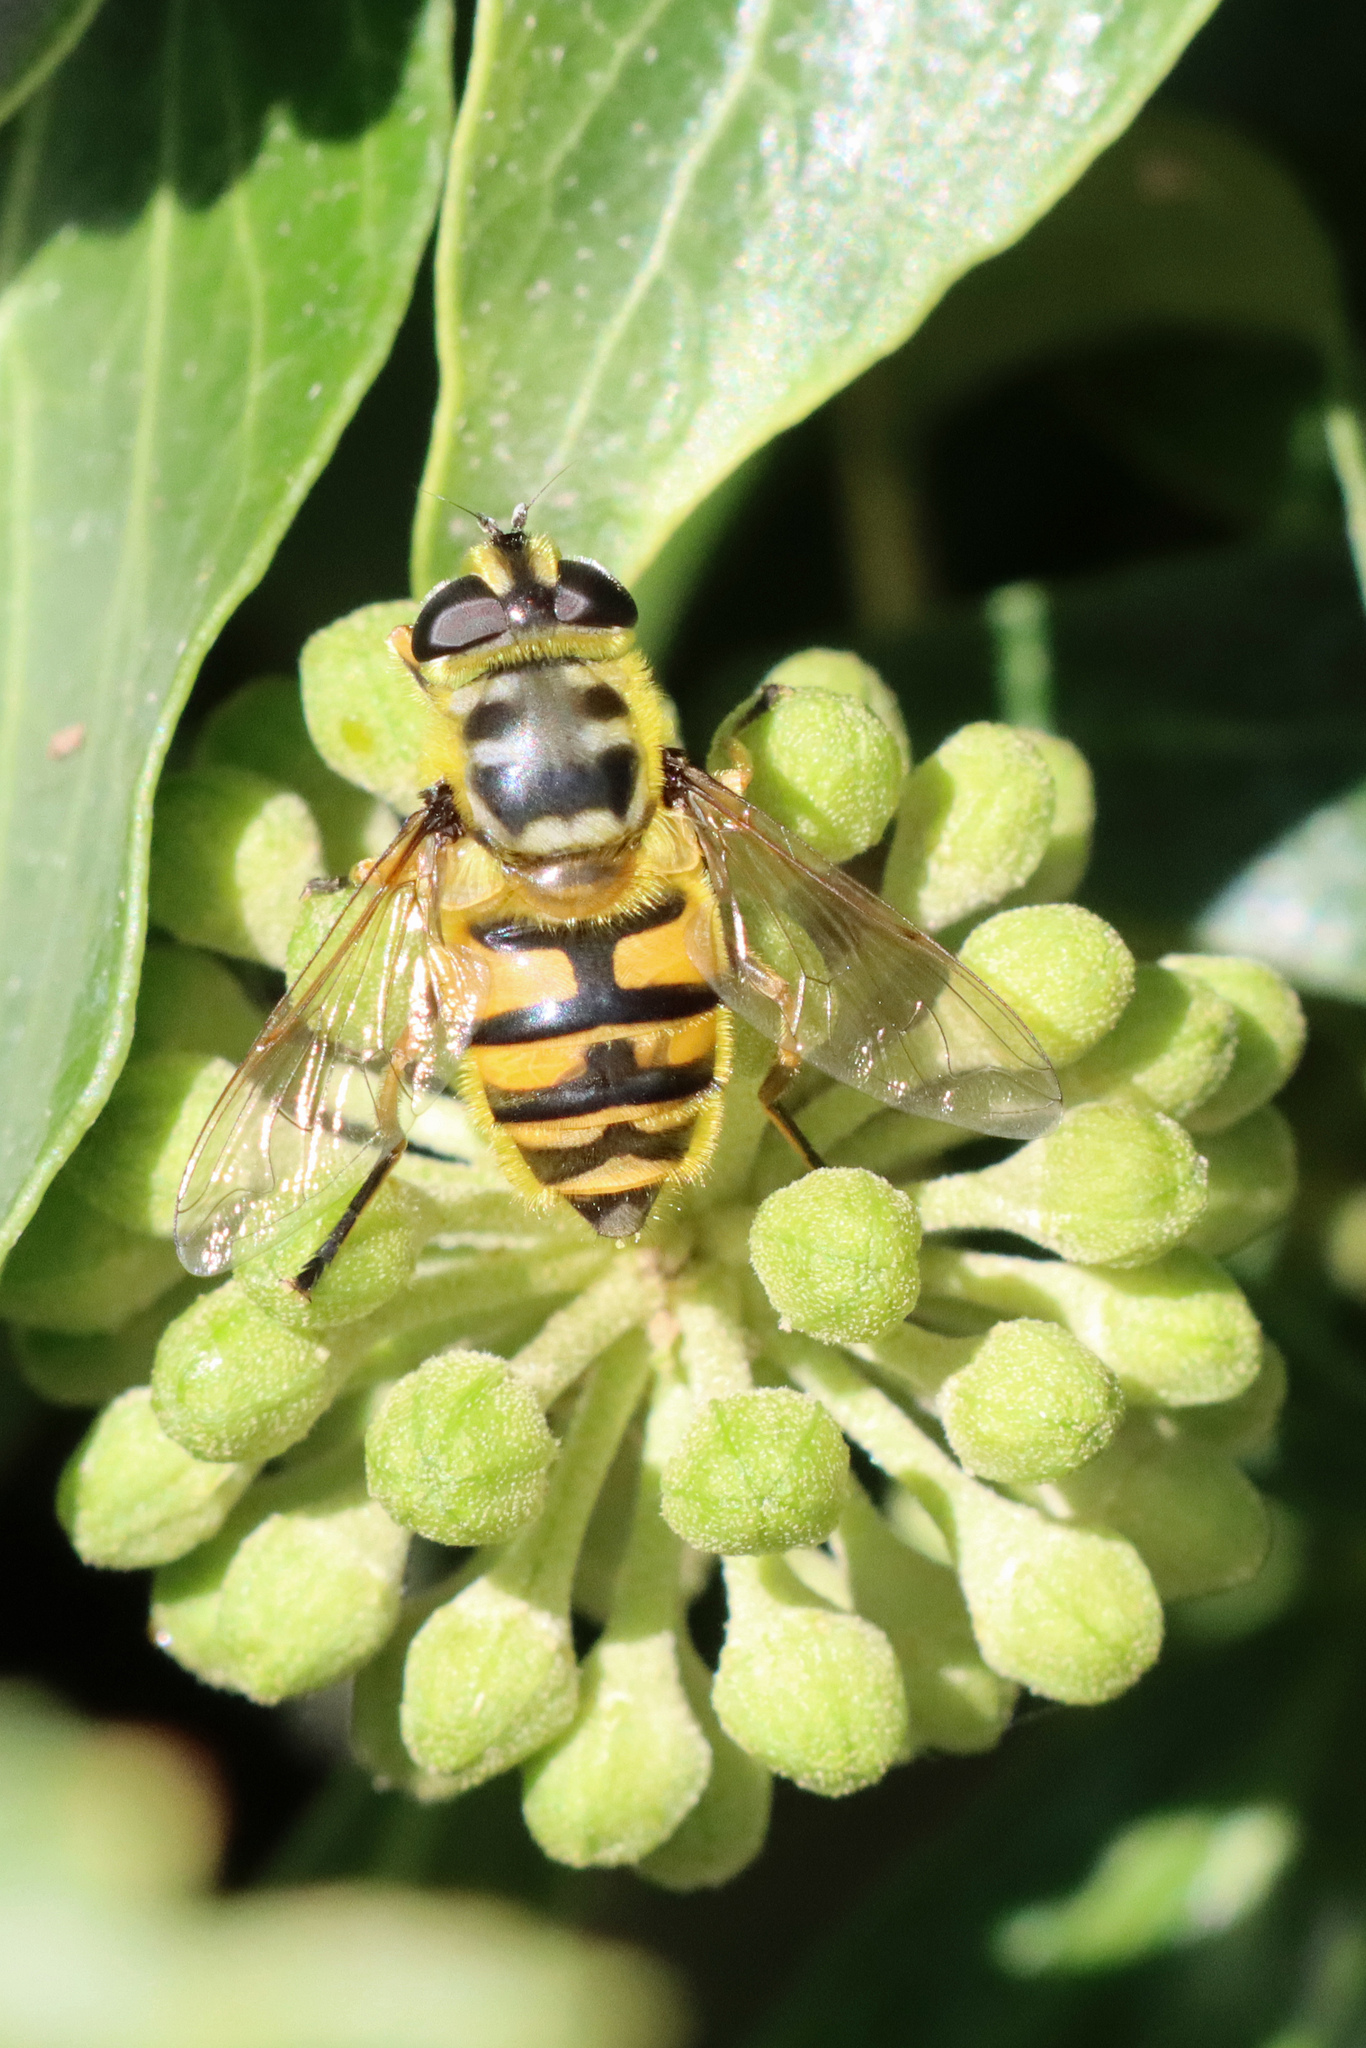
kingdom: Animalia
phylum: Arthropoda
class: Insecta
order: Diptera
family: Syrphidae
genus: Myathropa
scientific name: Myathropa florea
